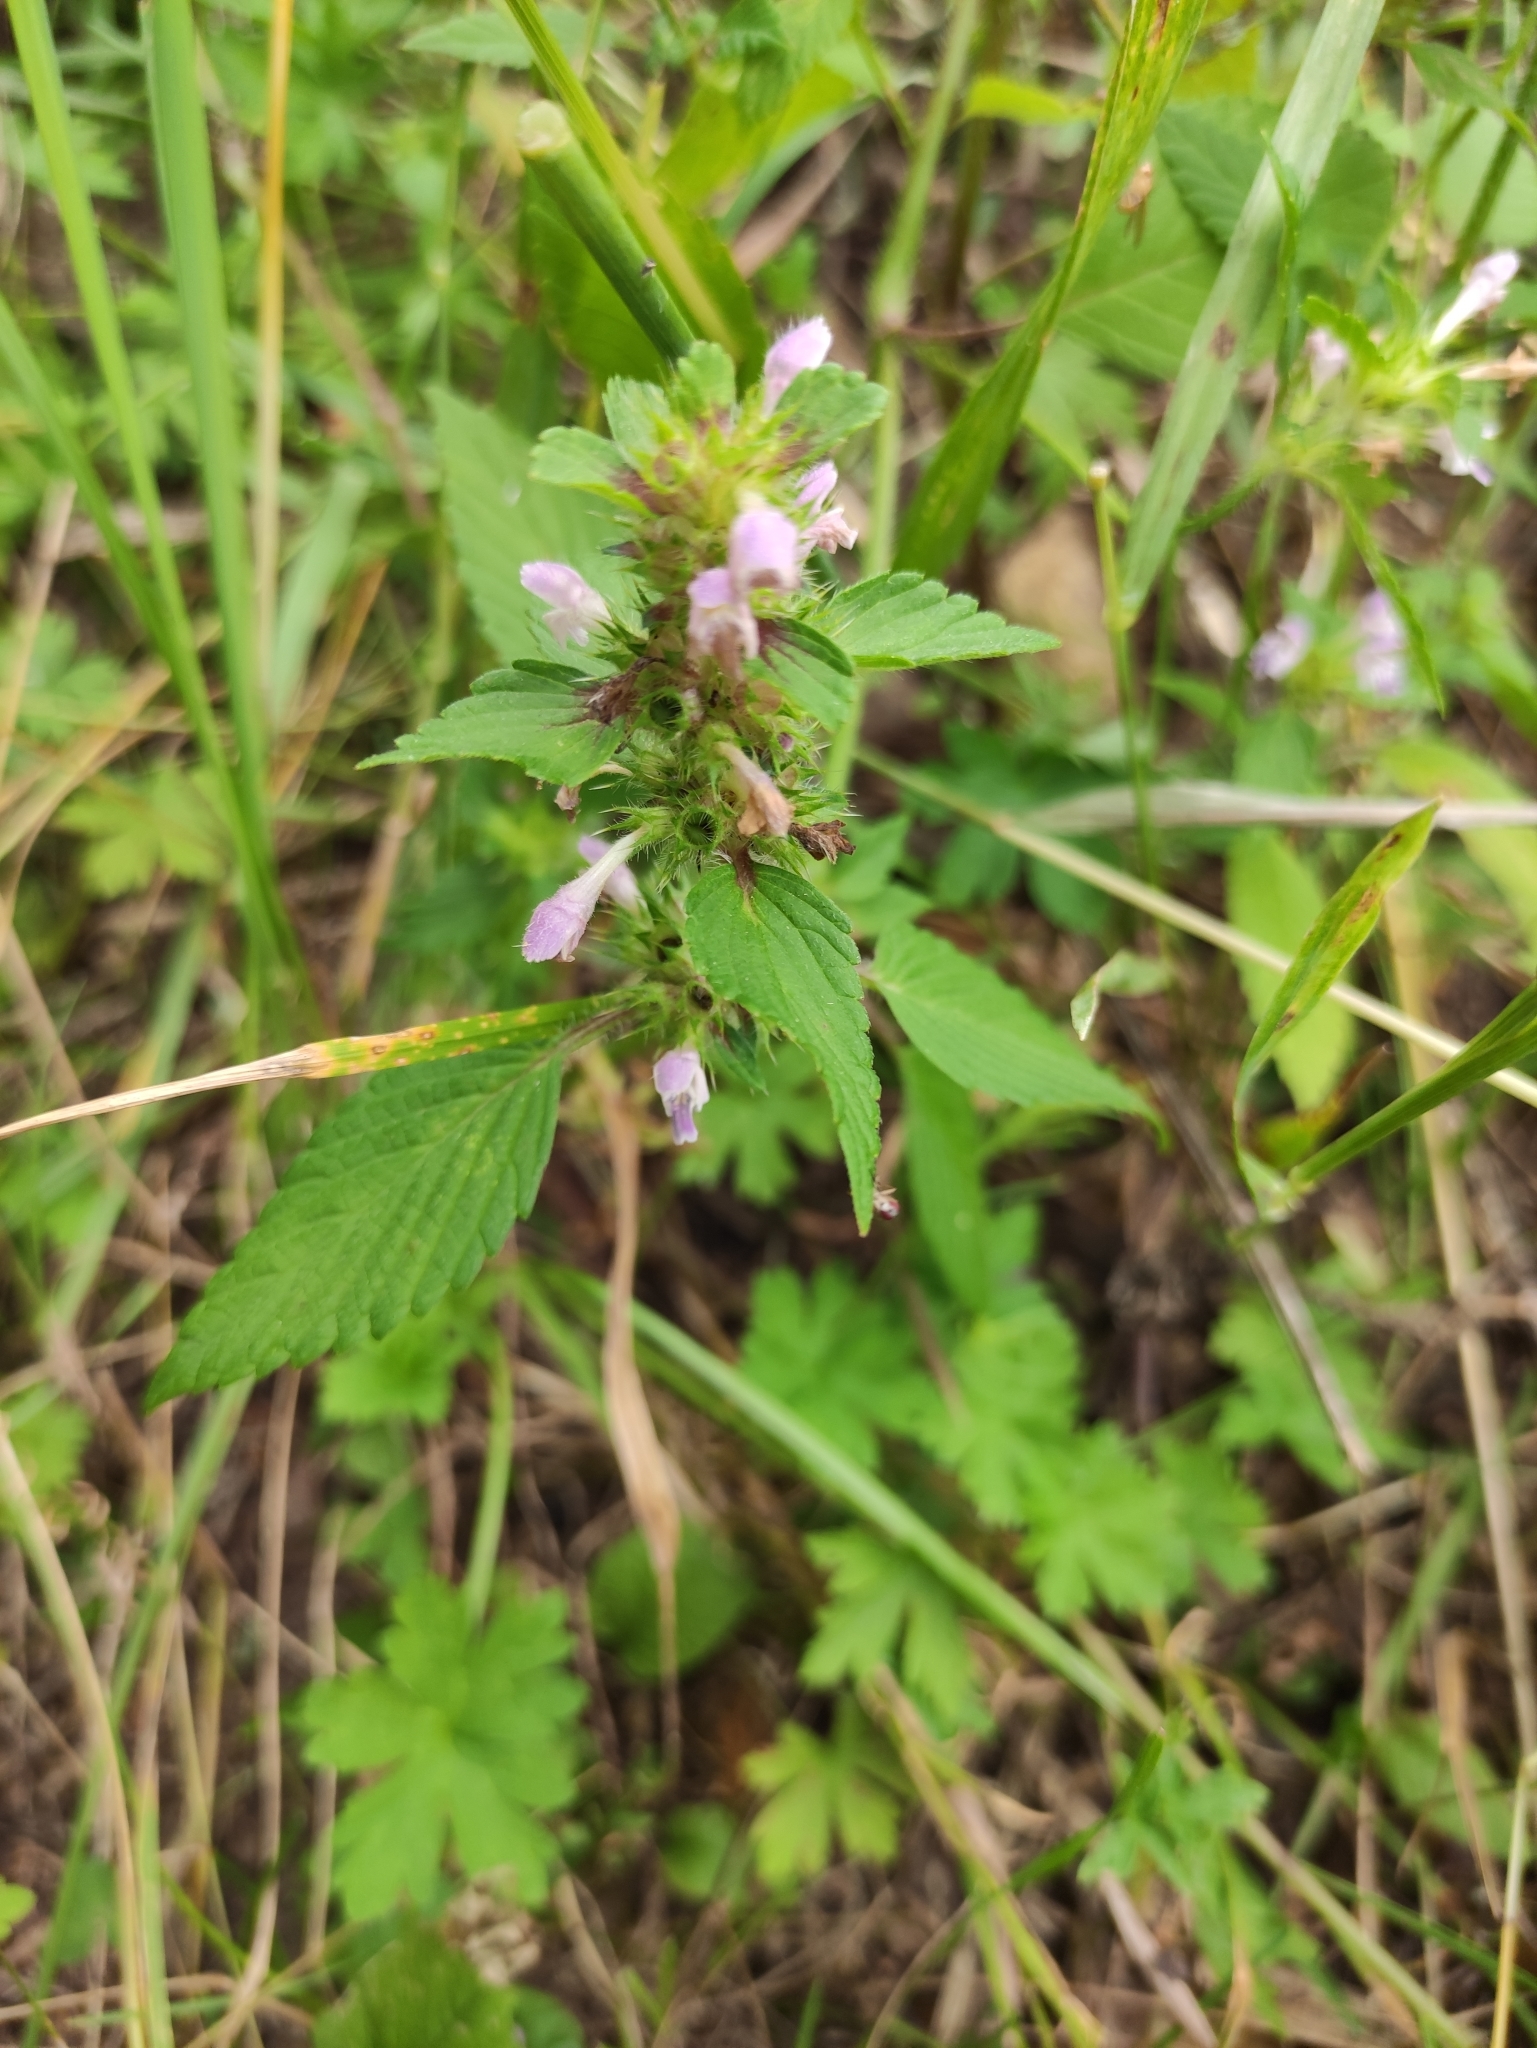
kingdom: Plantae
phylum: Tracheophyta
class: Magnoliopsida
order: Lamiales
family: Lamiaceae
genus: Galeopsis
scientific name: Galeopsis bifida
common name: Bifid hemp-nettle
